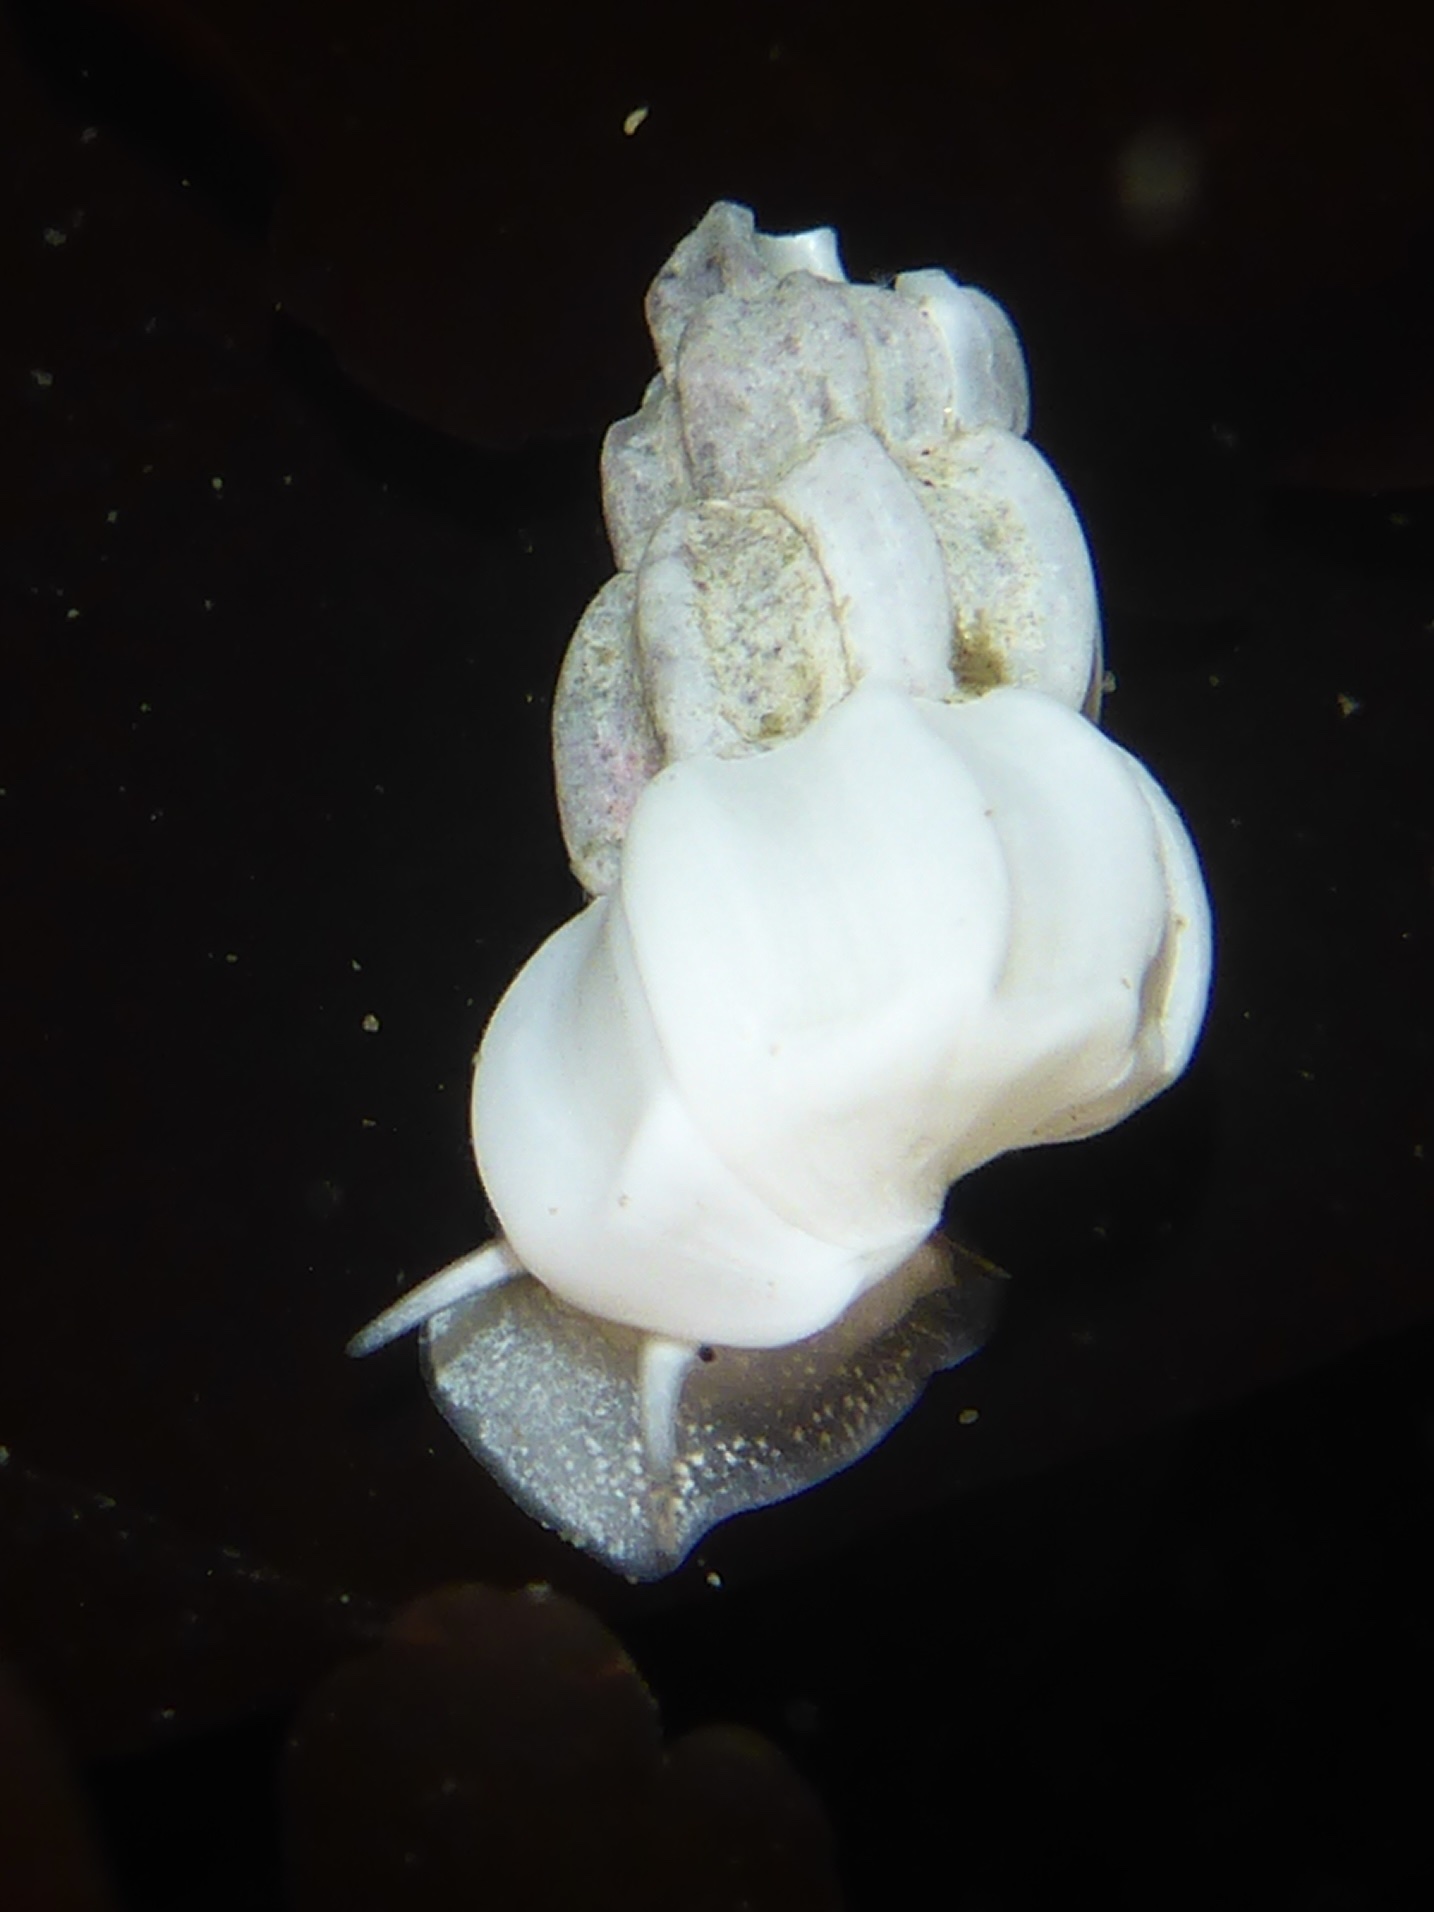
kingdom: Animalia
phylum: Mollusca
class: Gastropoda
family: Epitoniidae
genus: Opalia
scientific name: Opalia wroblewskyi
